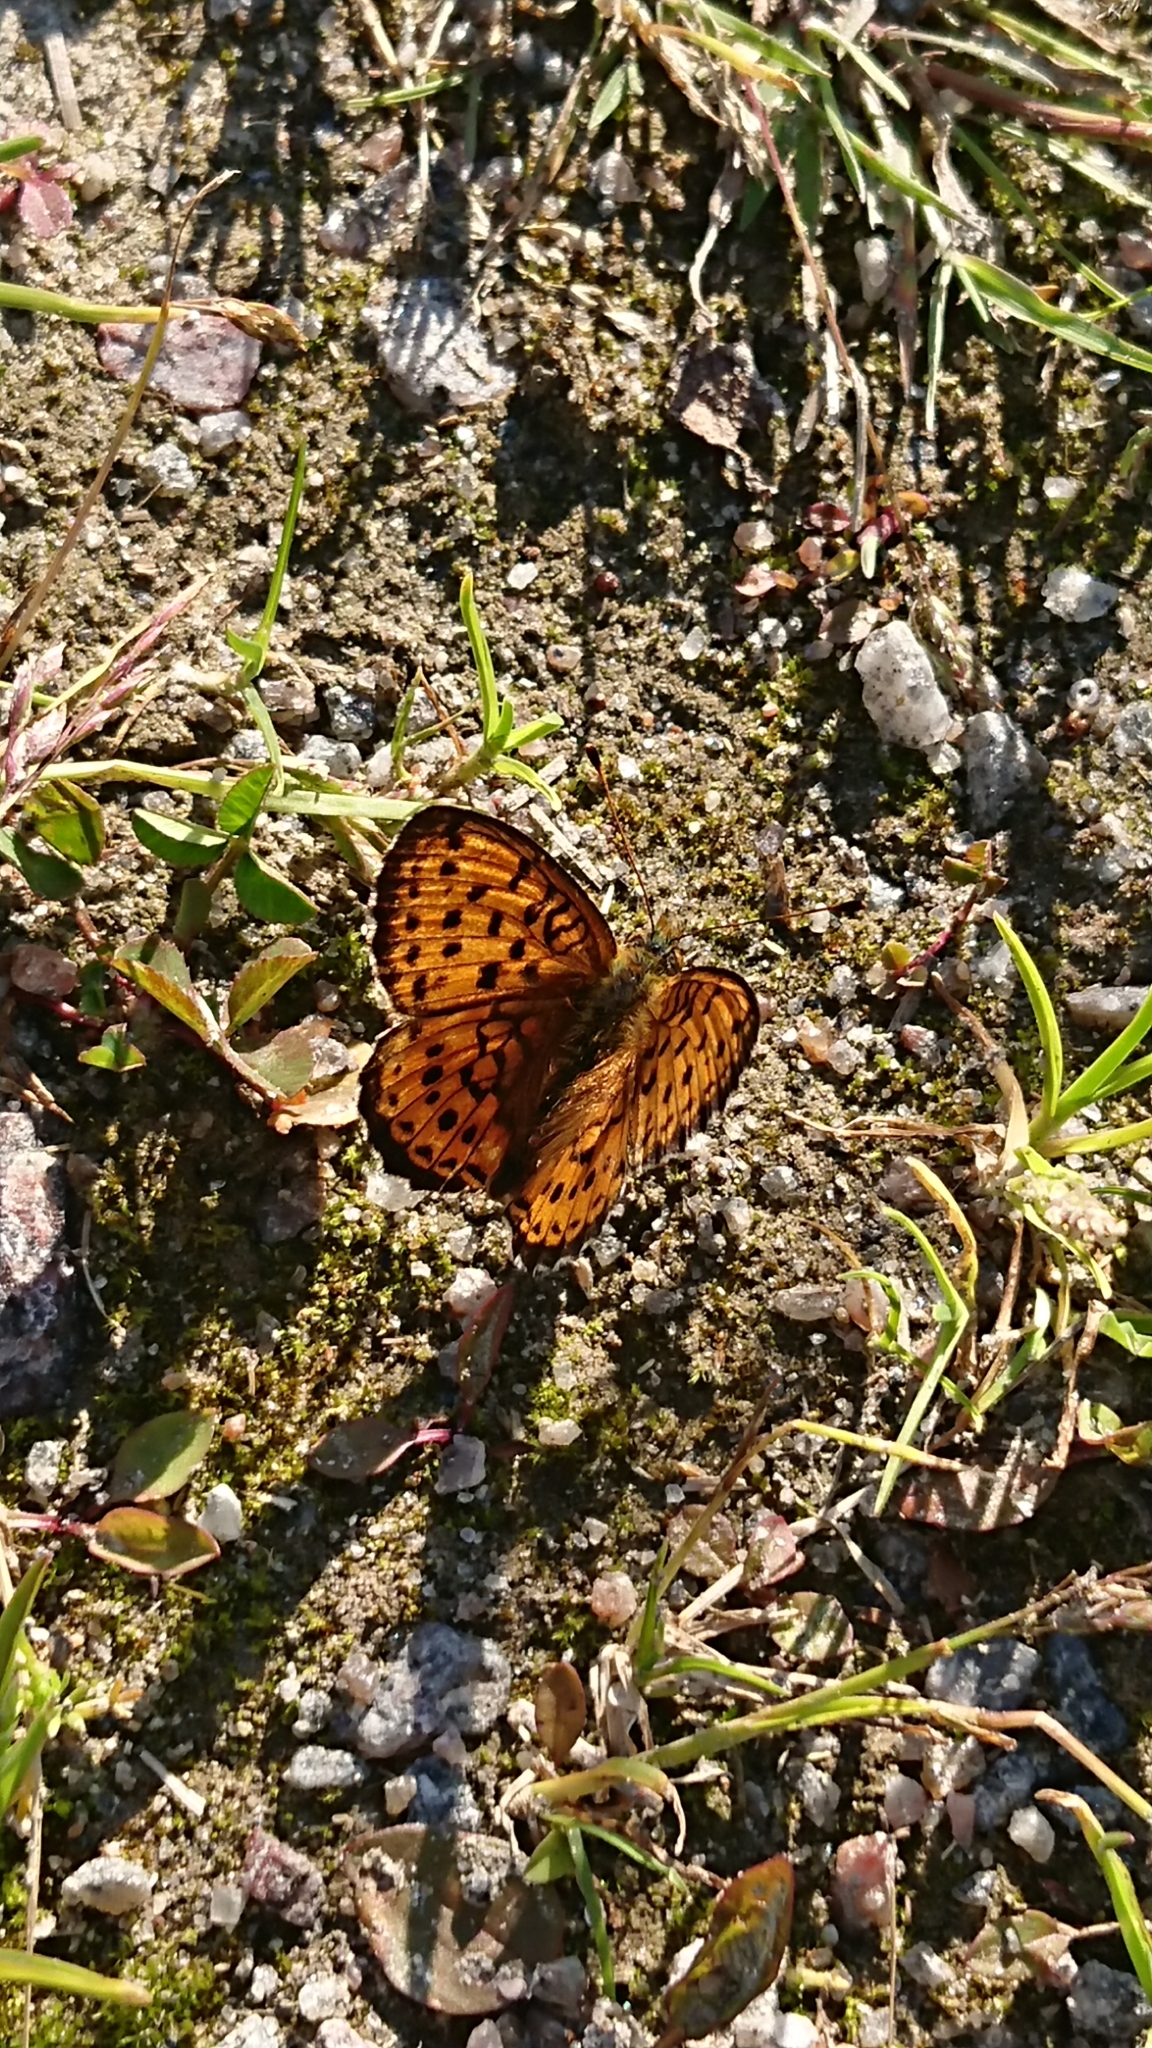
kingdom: Animalia
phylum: Arthropoda
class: Insecta
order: Lepidoptera
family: Nymphalidae
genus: Brenthis
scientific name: Brenthis ino
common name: Lesser marbled fritillary
